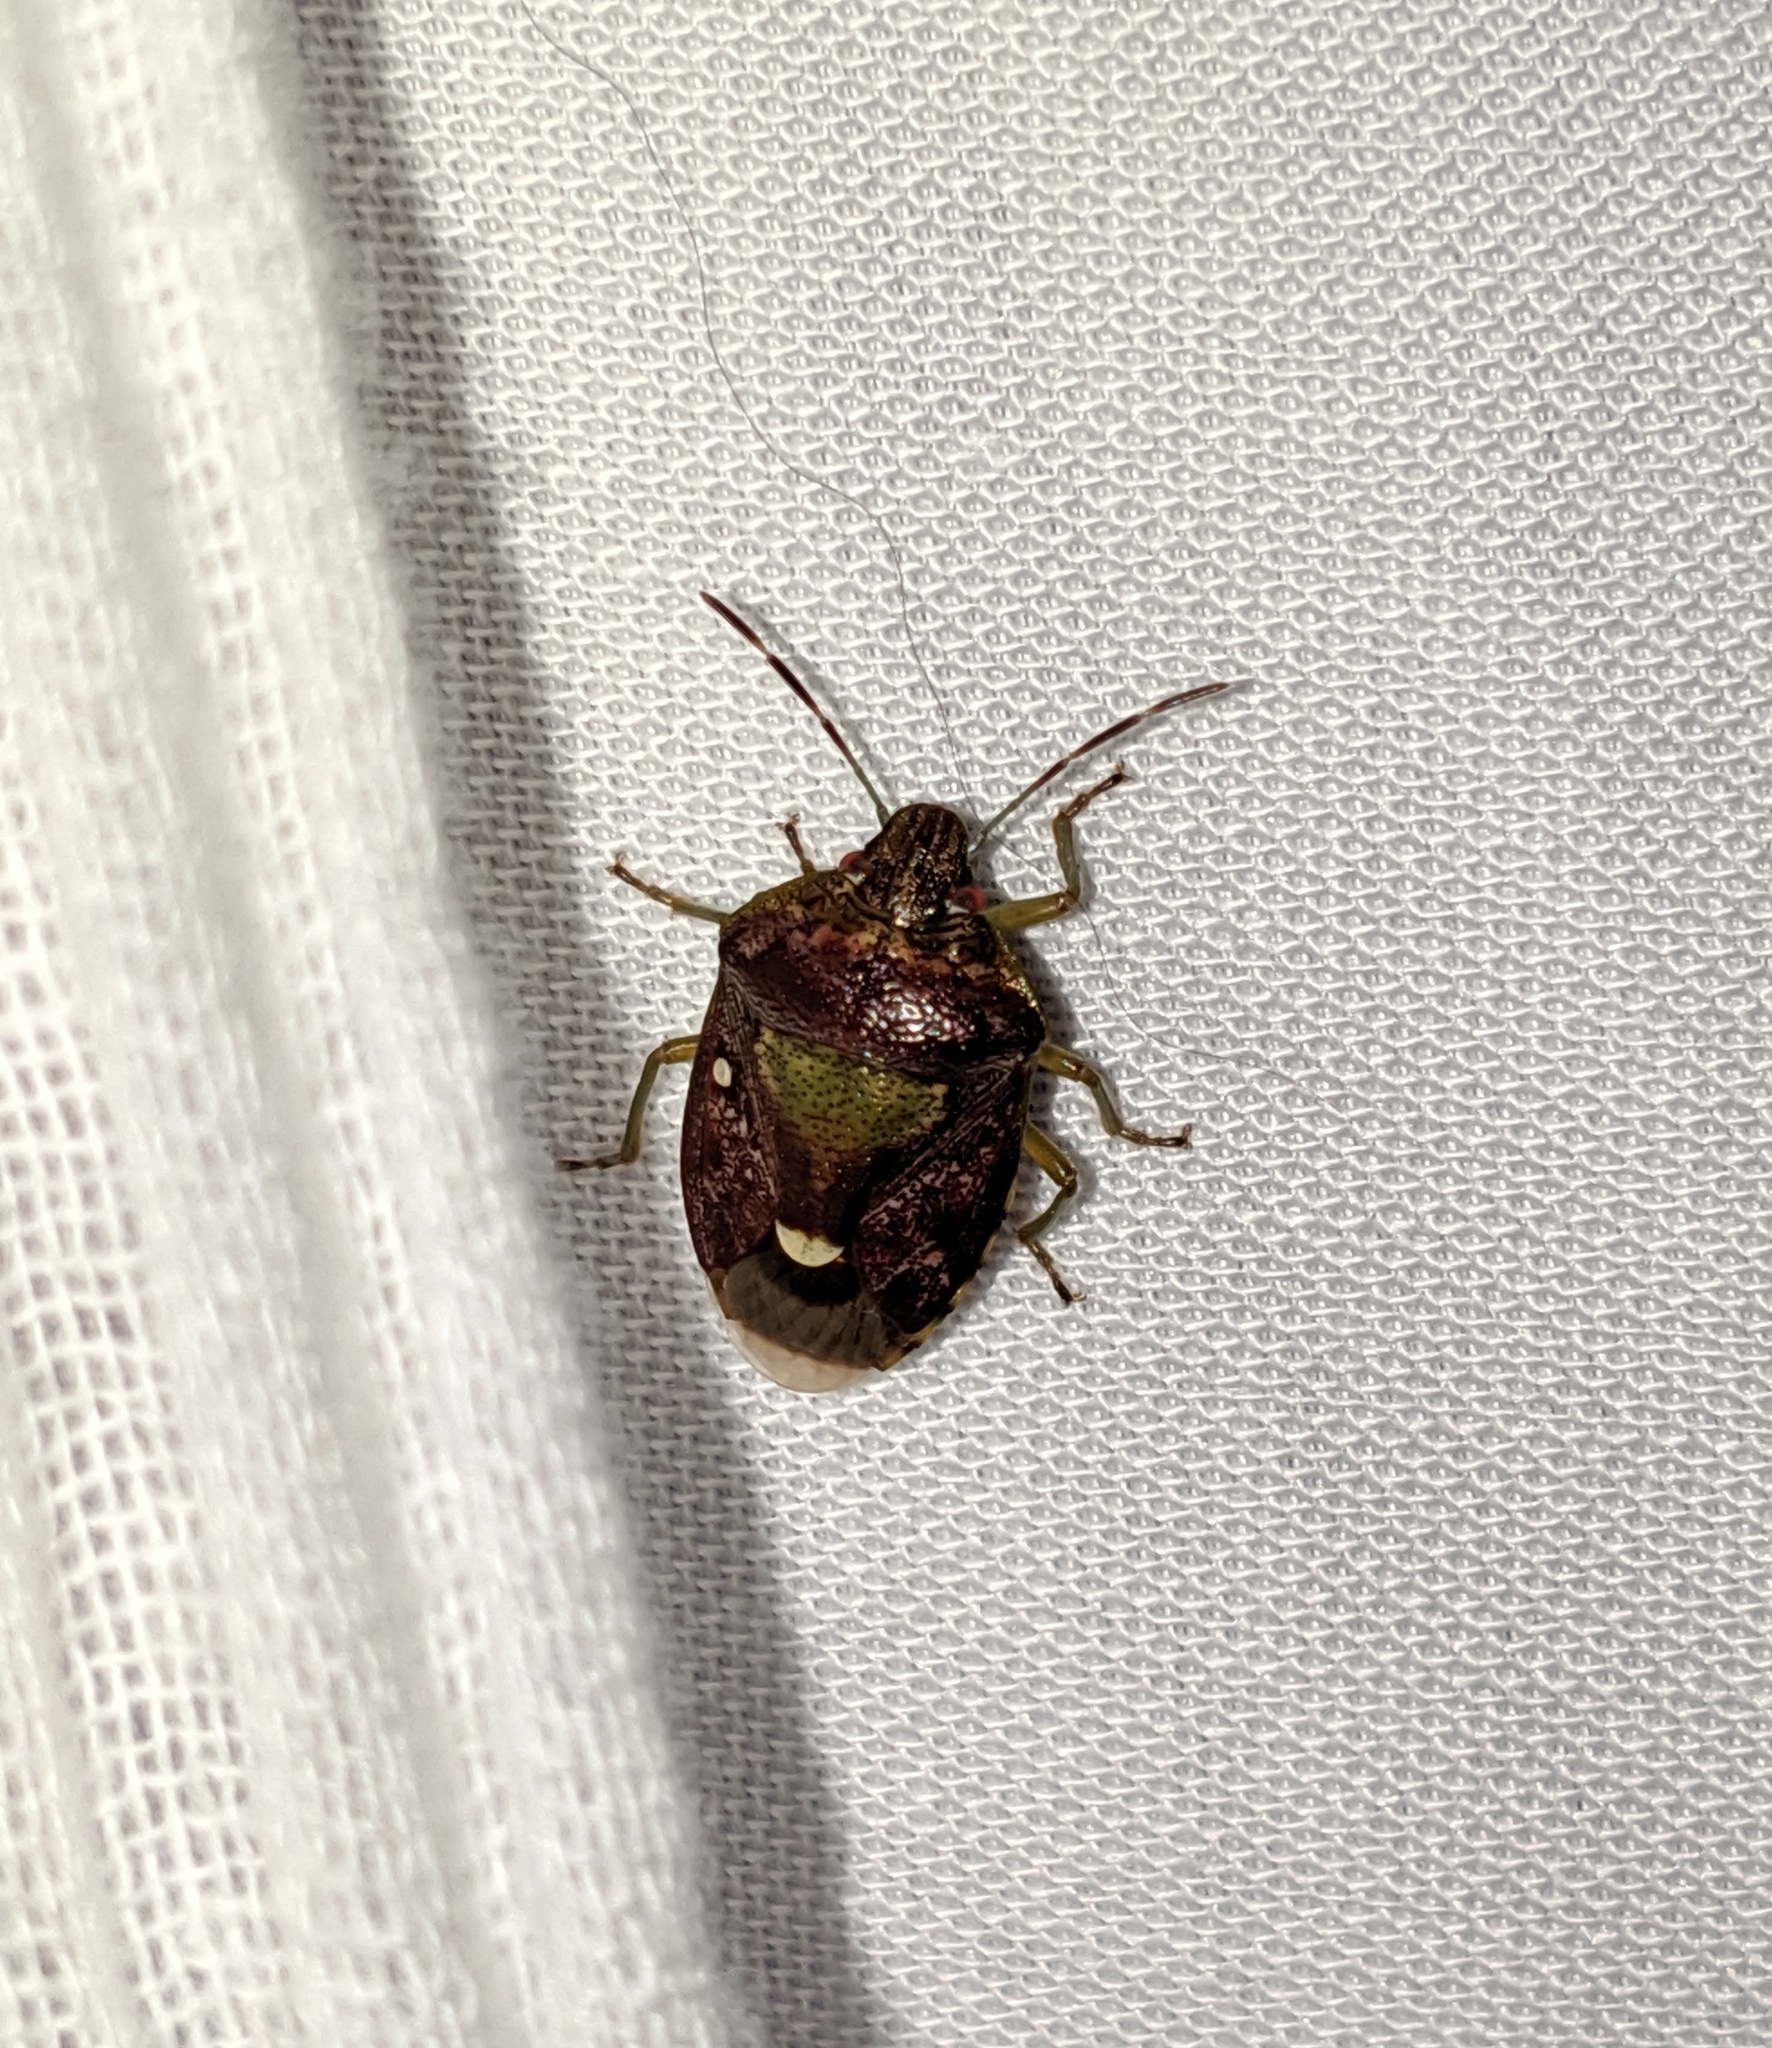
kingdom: Animalia
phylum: Arthropoda
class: Insecta
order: Hemiptera
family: Pentatomidae
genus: Banasa
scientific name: Banasa sordida
